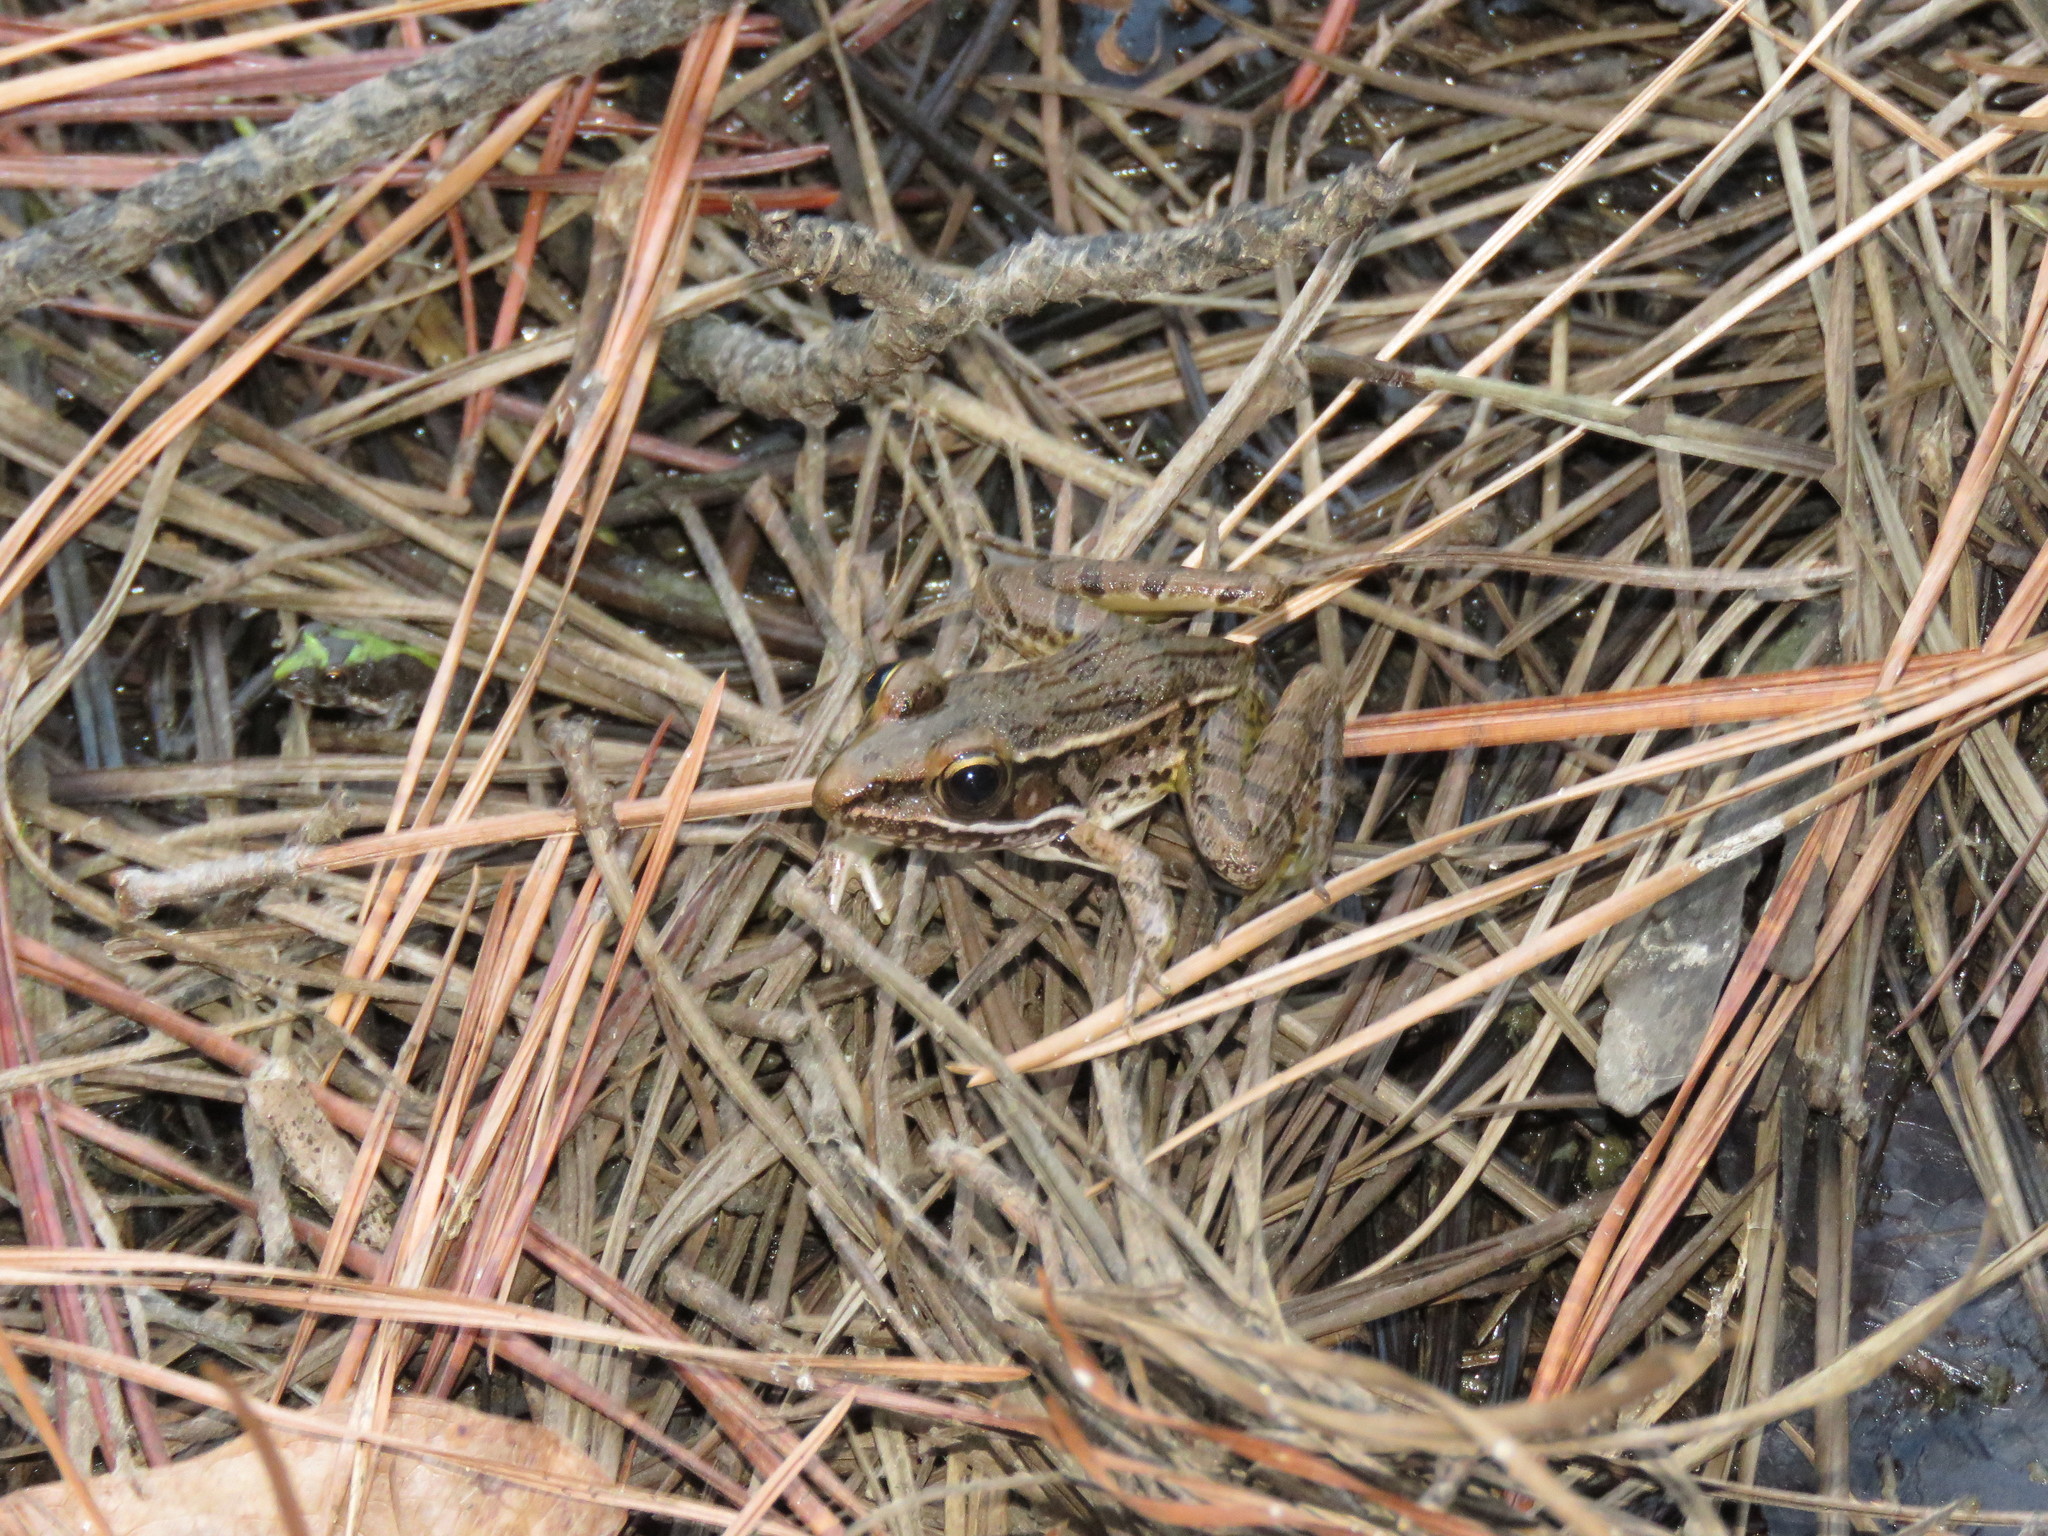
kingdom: Animalia
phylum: Chordata
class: Amphibia
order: Anura
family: Ranidae
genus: Lithobates
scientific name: Lithobates sphenocephalus
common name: Southern leopard frog
